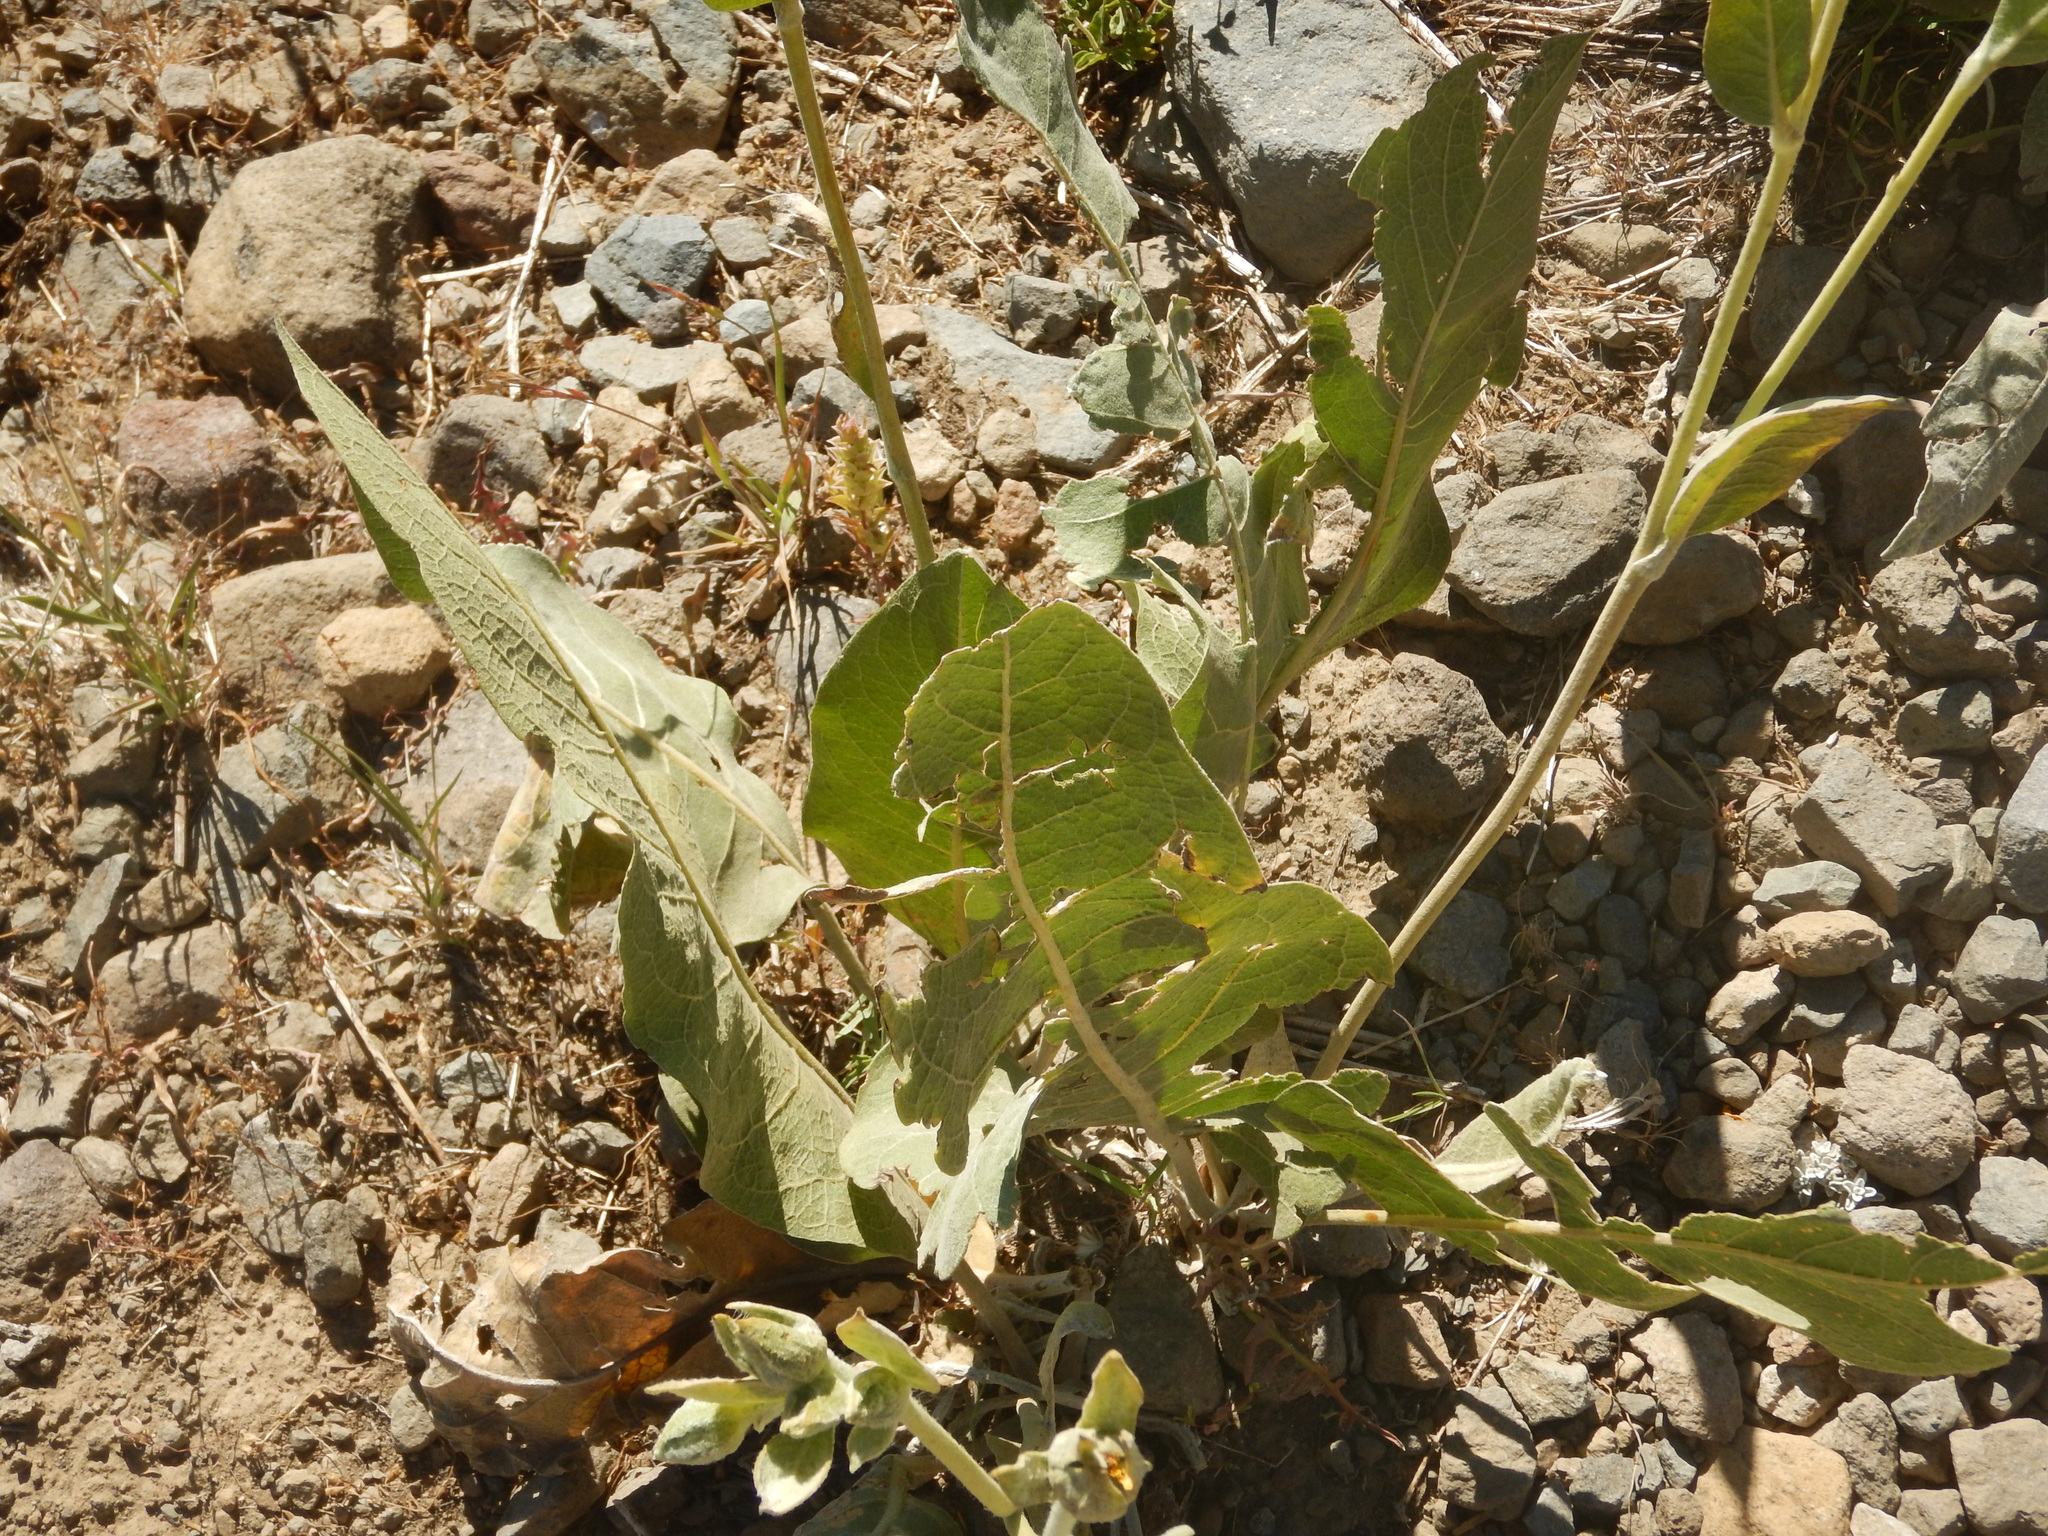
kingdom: Plantae
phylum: Tracheophyta
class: Magnoliopsida
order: Asterales
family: Asteraceae
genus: Wyethia
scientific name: Wyethia mollis
